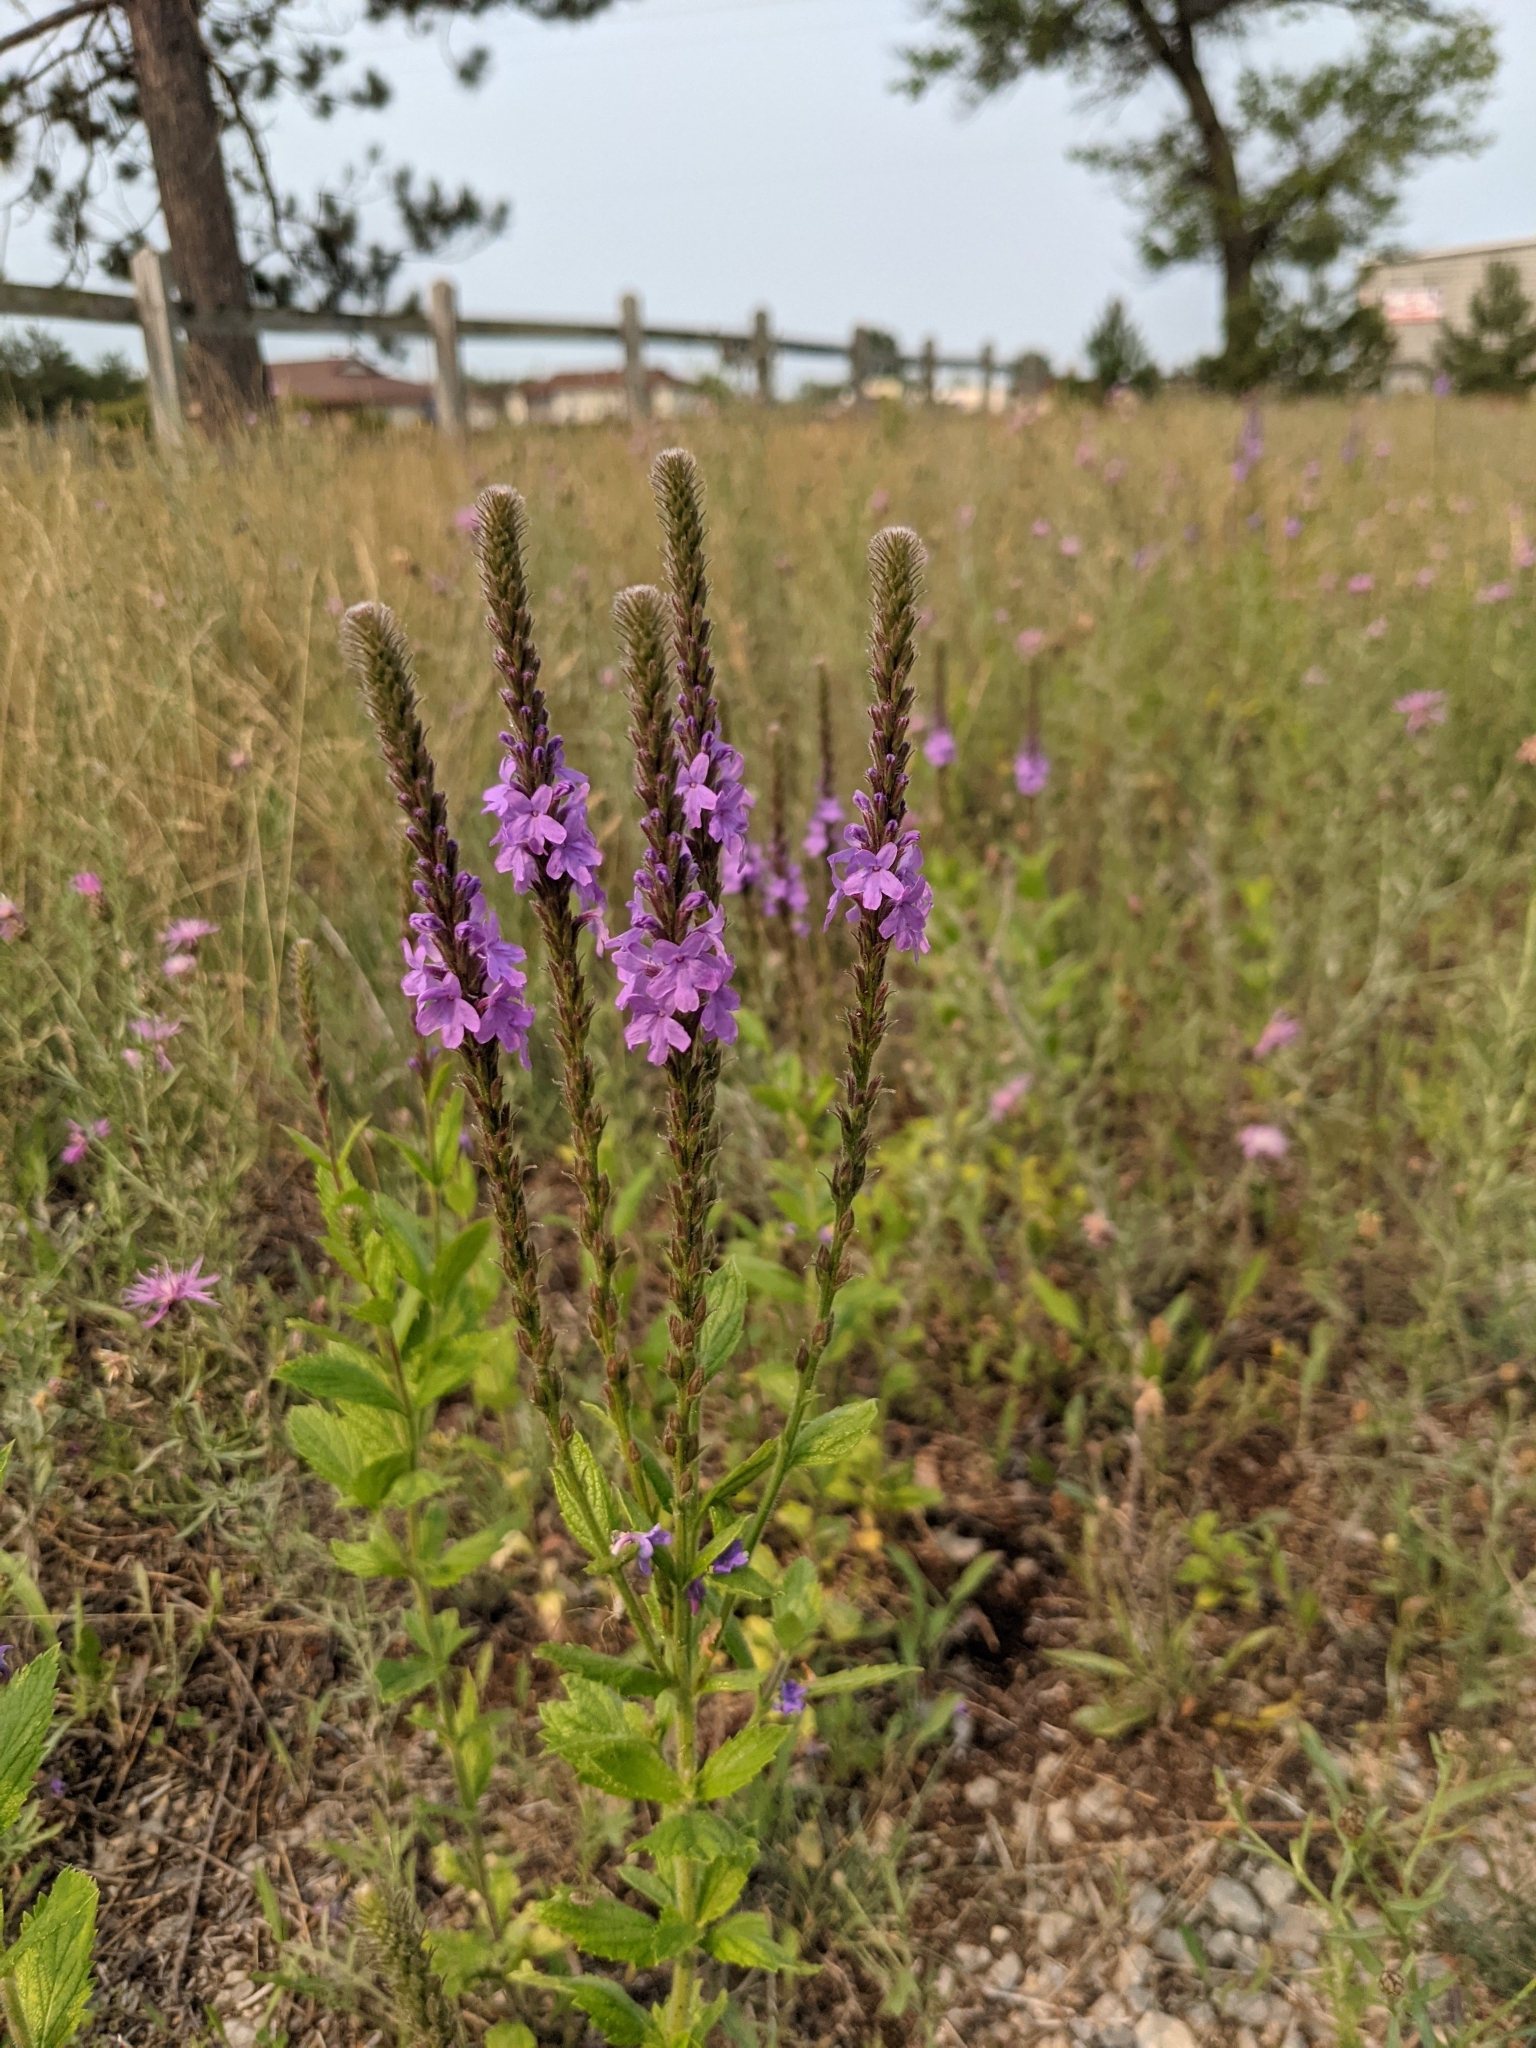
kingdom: Plantae
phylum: Tracheophyta
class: Magnoliopsida
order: Lamiales
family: Verbenaceae
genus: Verbena
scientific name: Verbena stricta
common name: Hoary vervain
